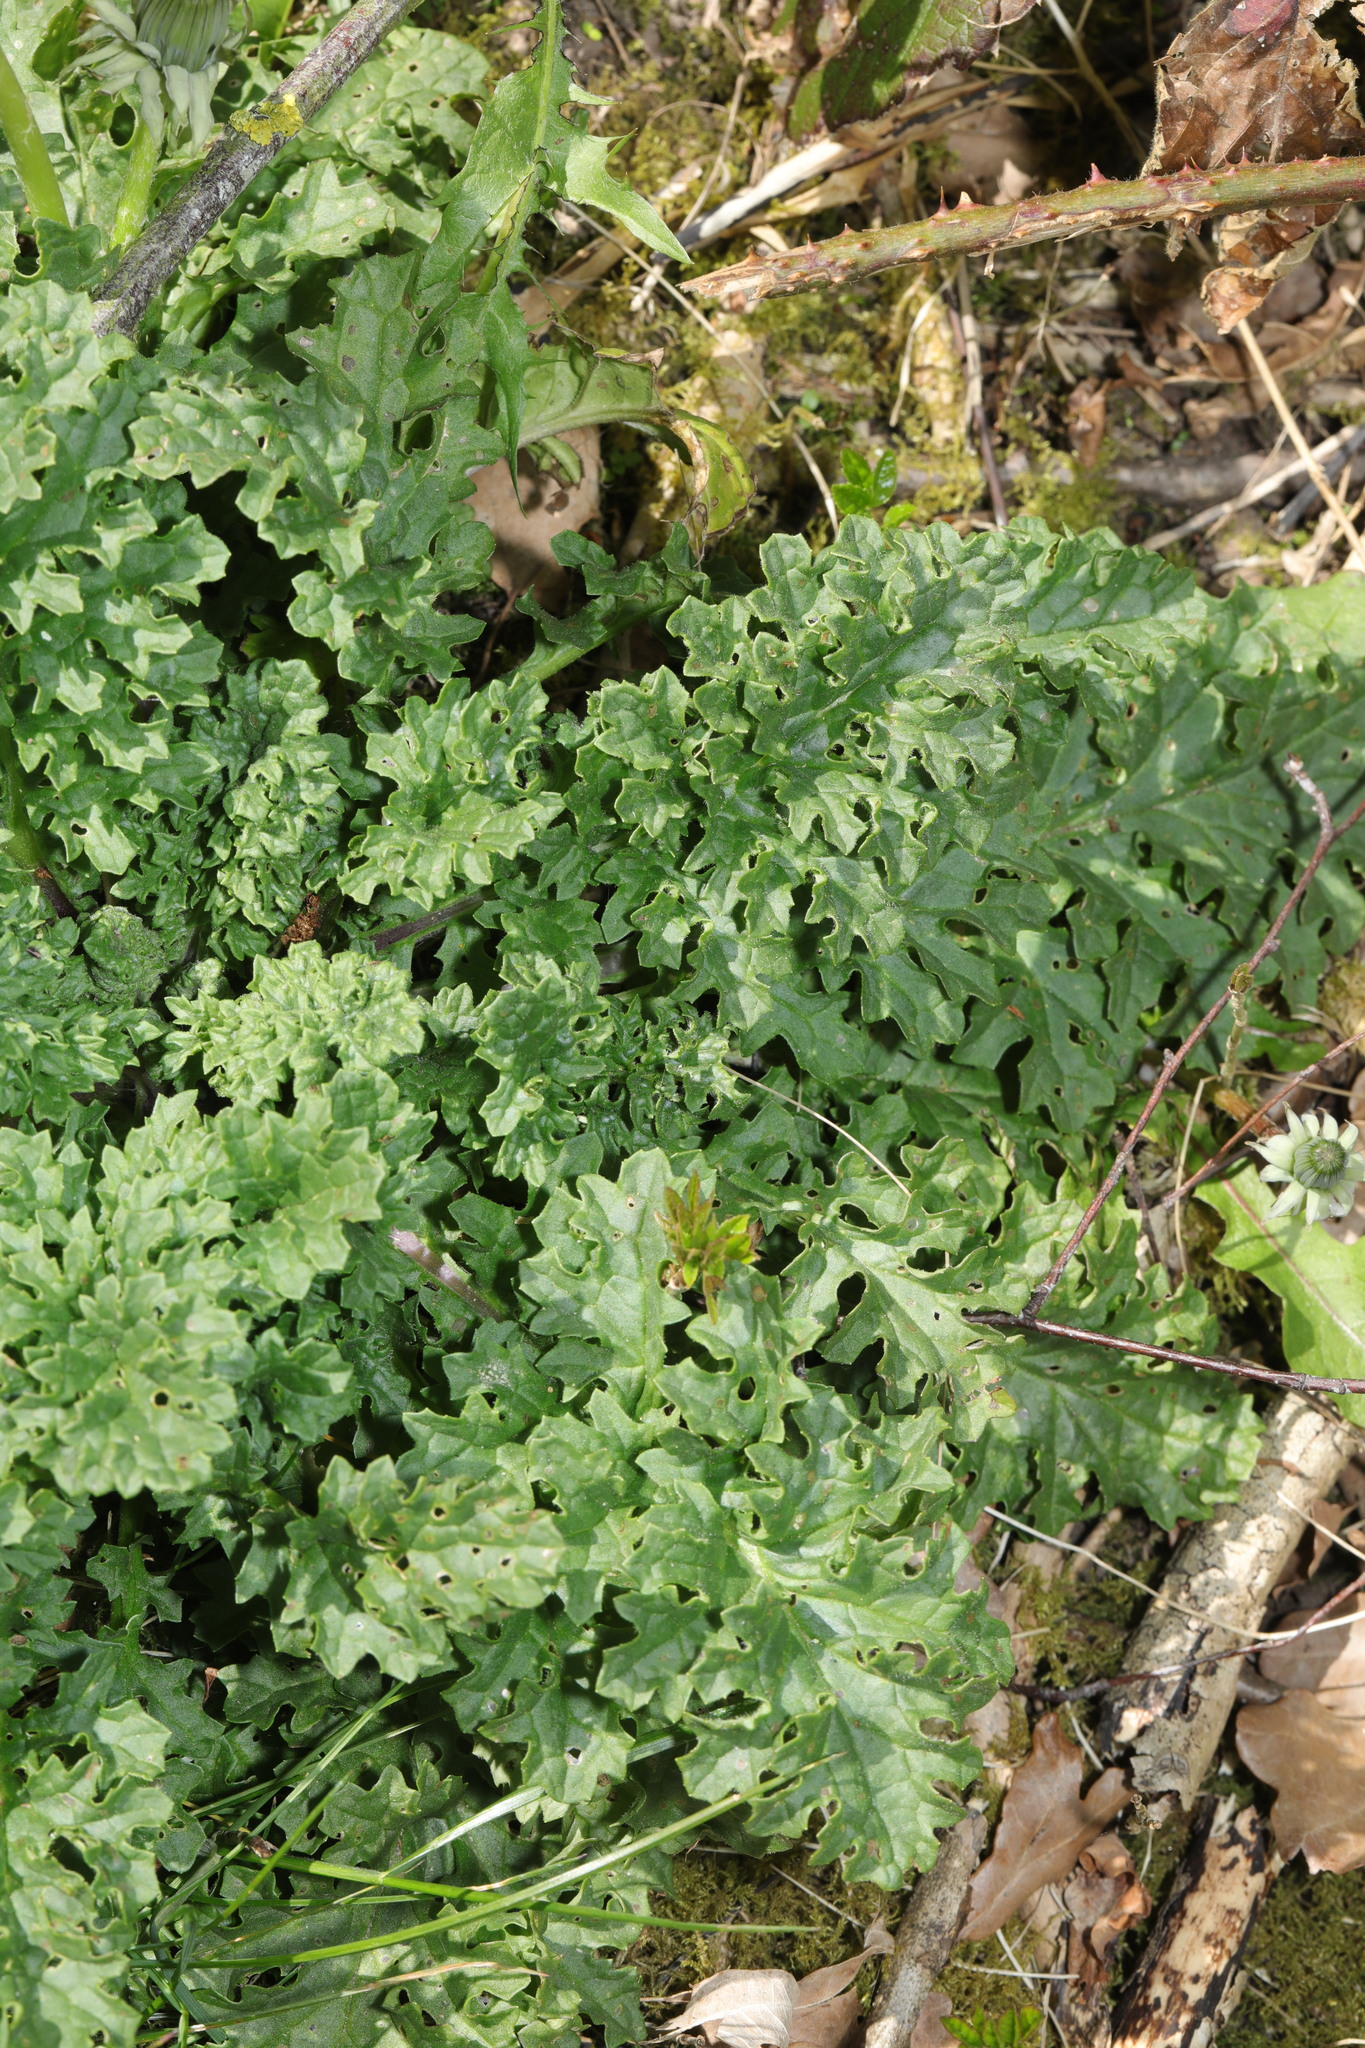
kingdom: Plantae
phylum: Tracheophyta
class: Magnoliopsida
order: Asterales
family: Asteraceae
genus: Jacobaea
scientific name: Jacobaea vulgaris
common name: Stinking willie
